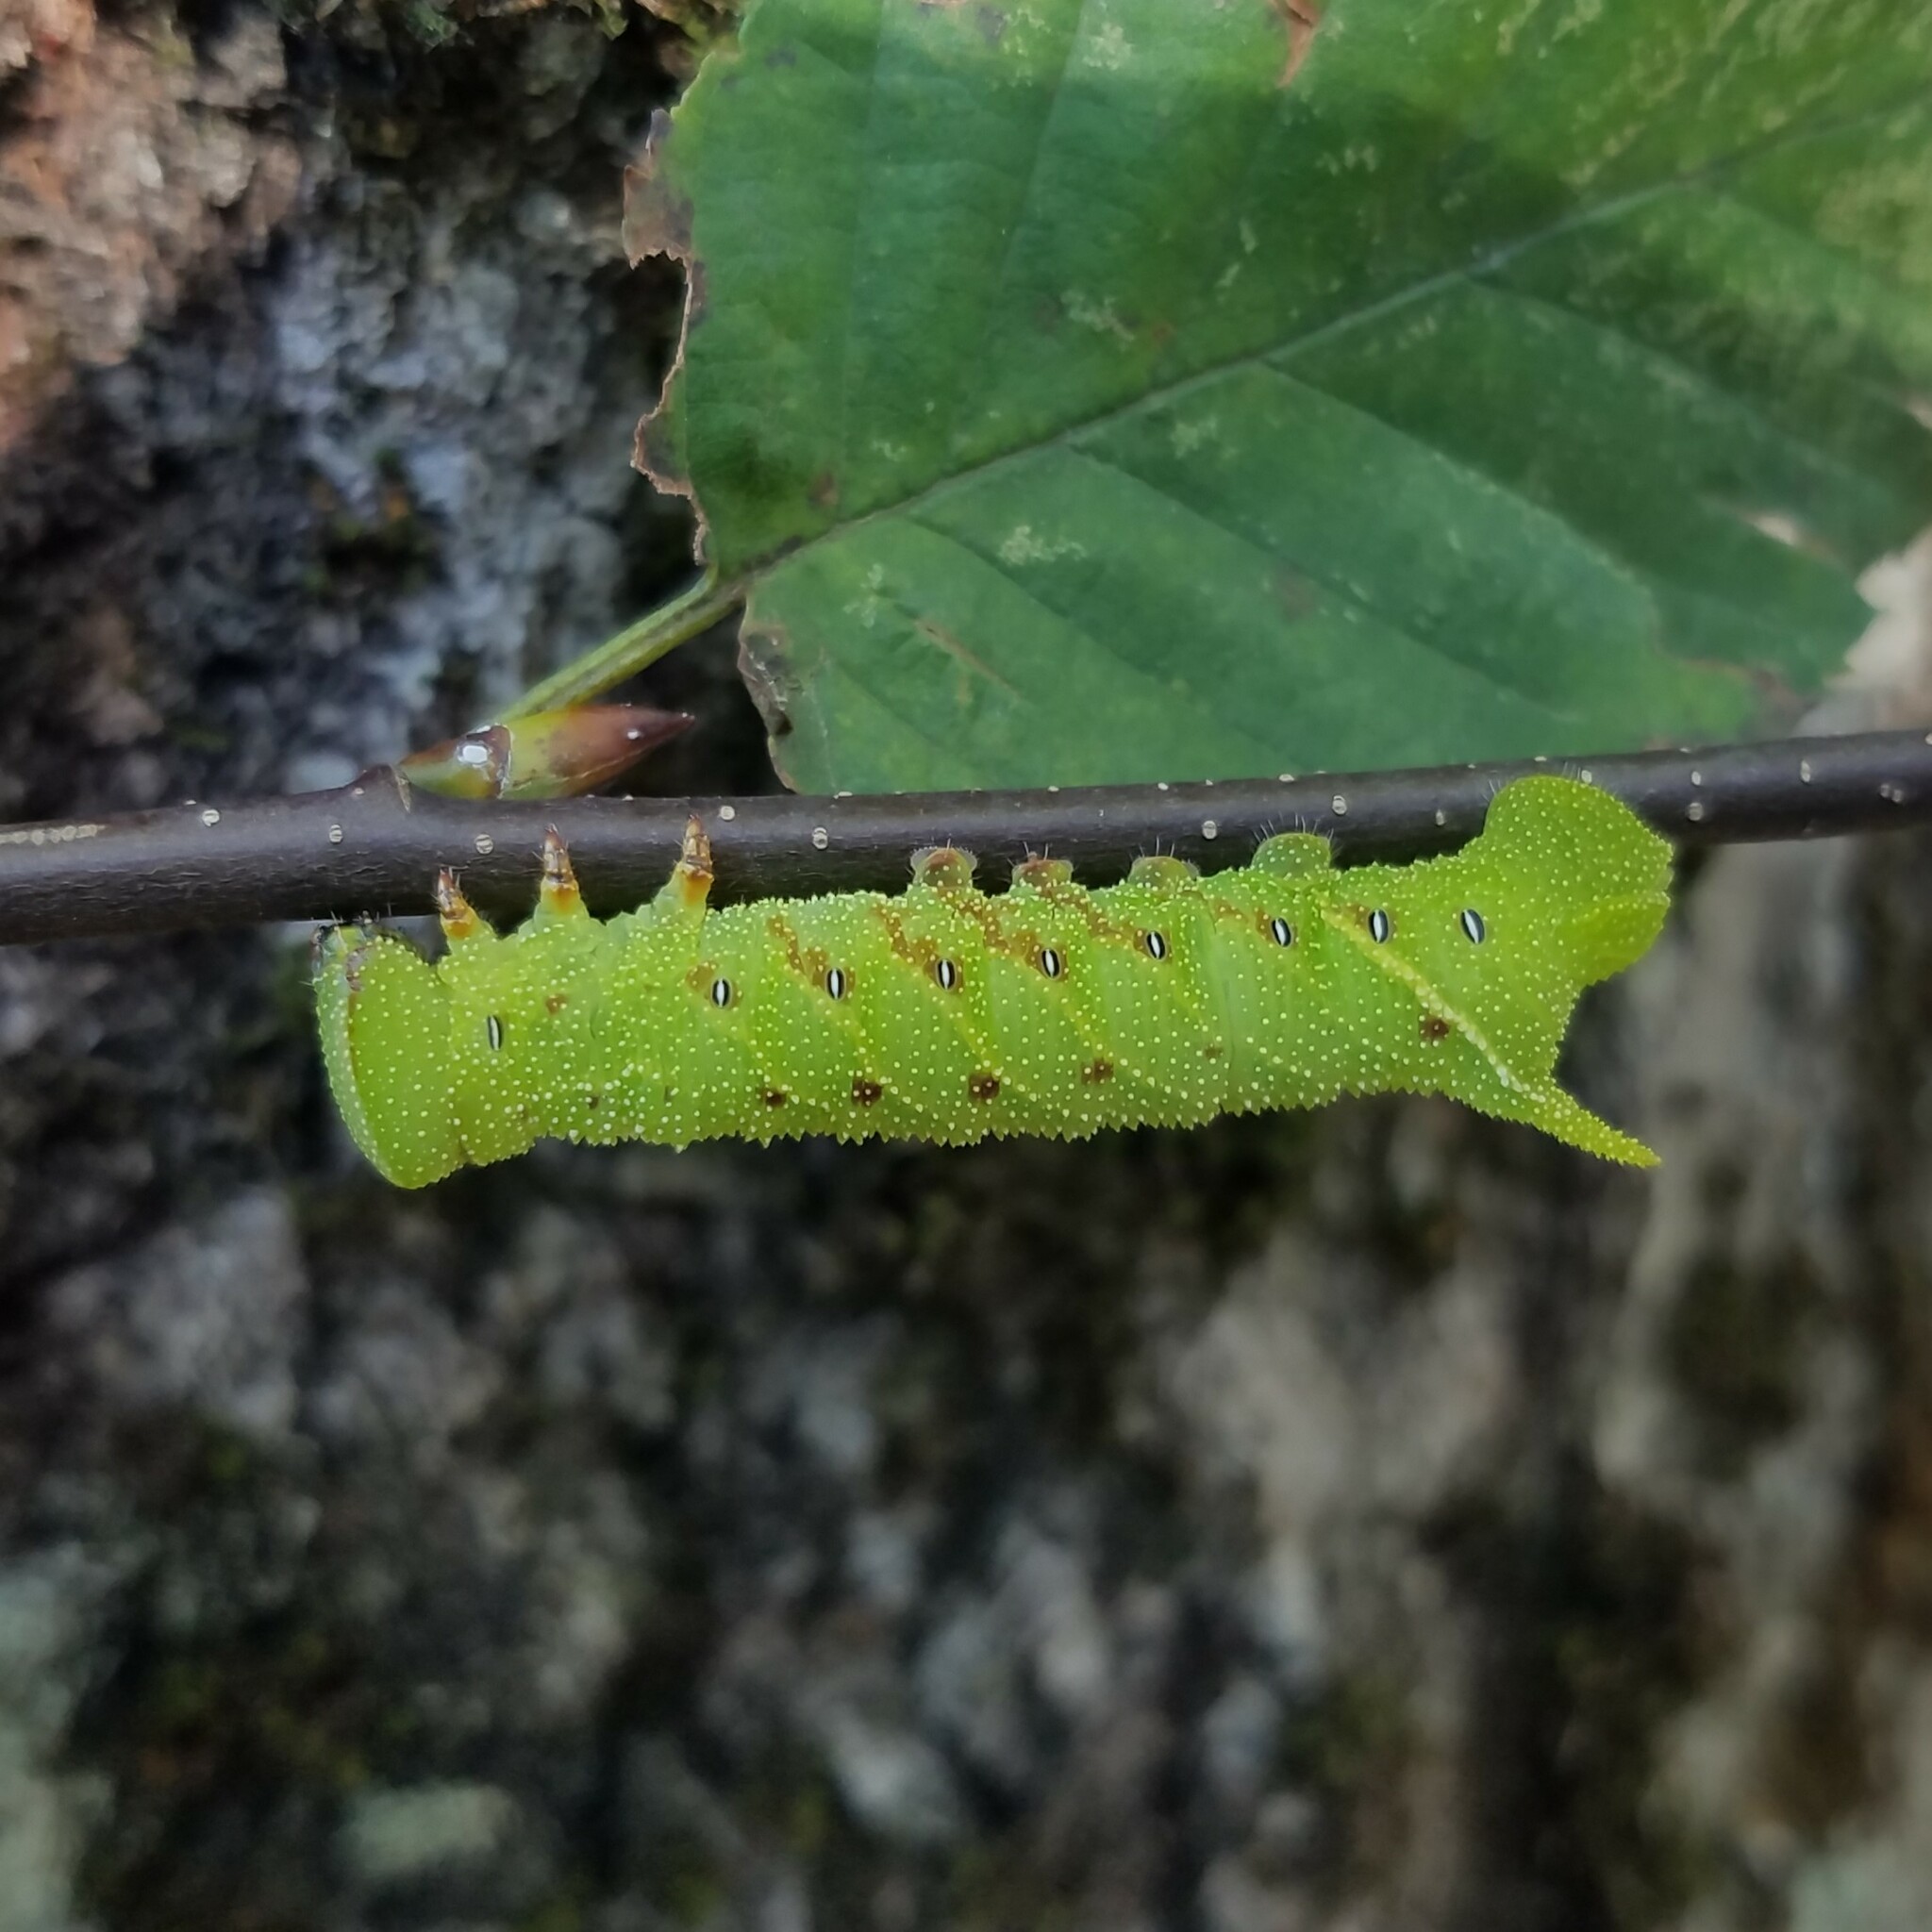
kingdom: Animalia
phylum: Arthropoda
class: Insecta
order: Lepidoptera
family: Sphingidae
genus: Paonias
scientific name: Paonias excaecata
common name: Blind-eyed sphinx
